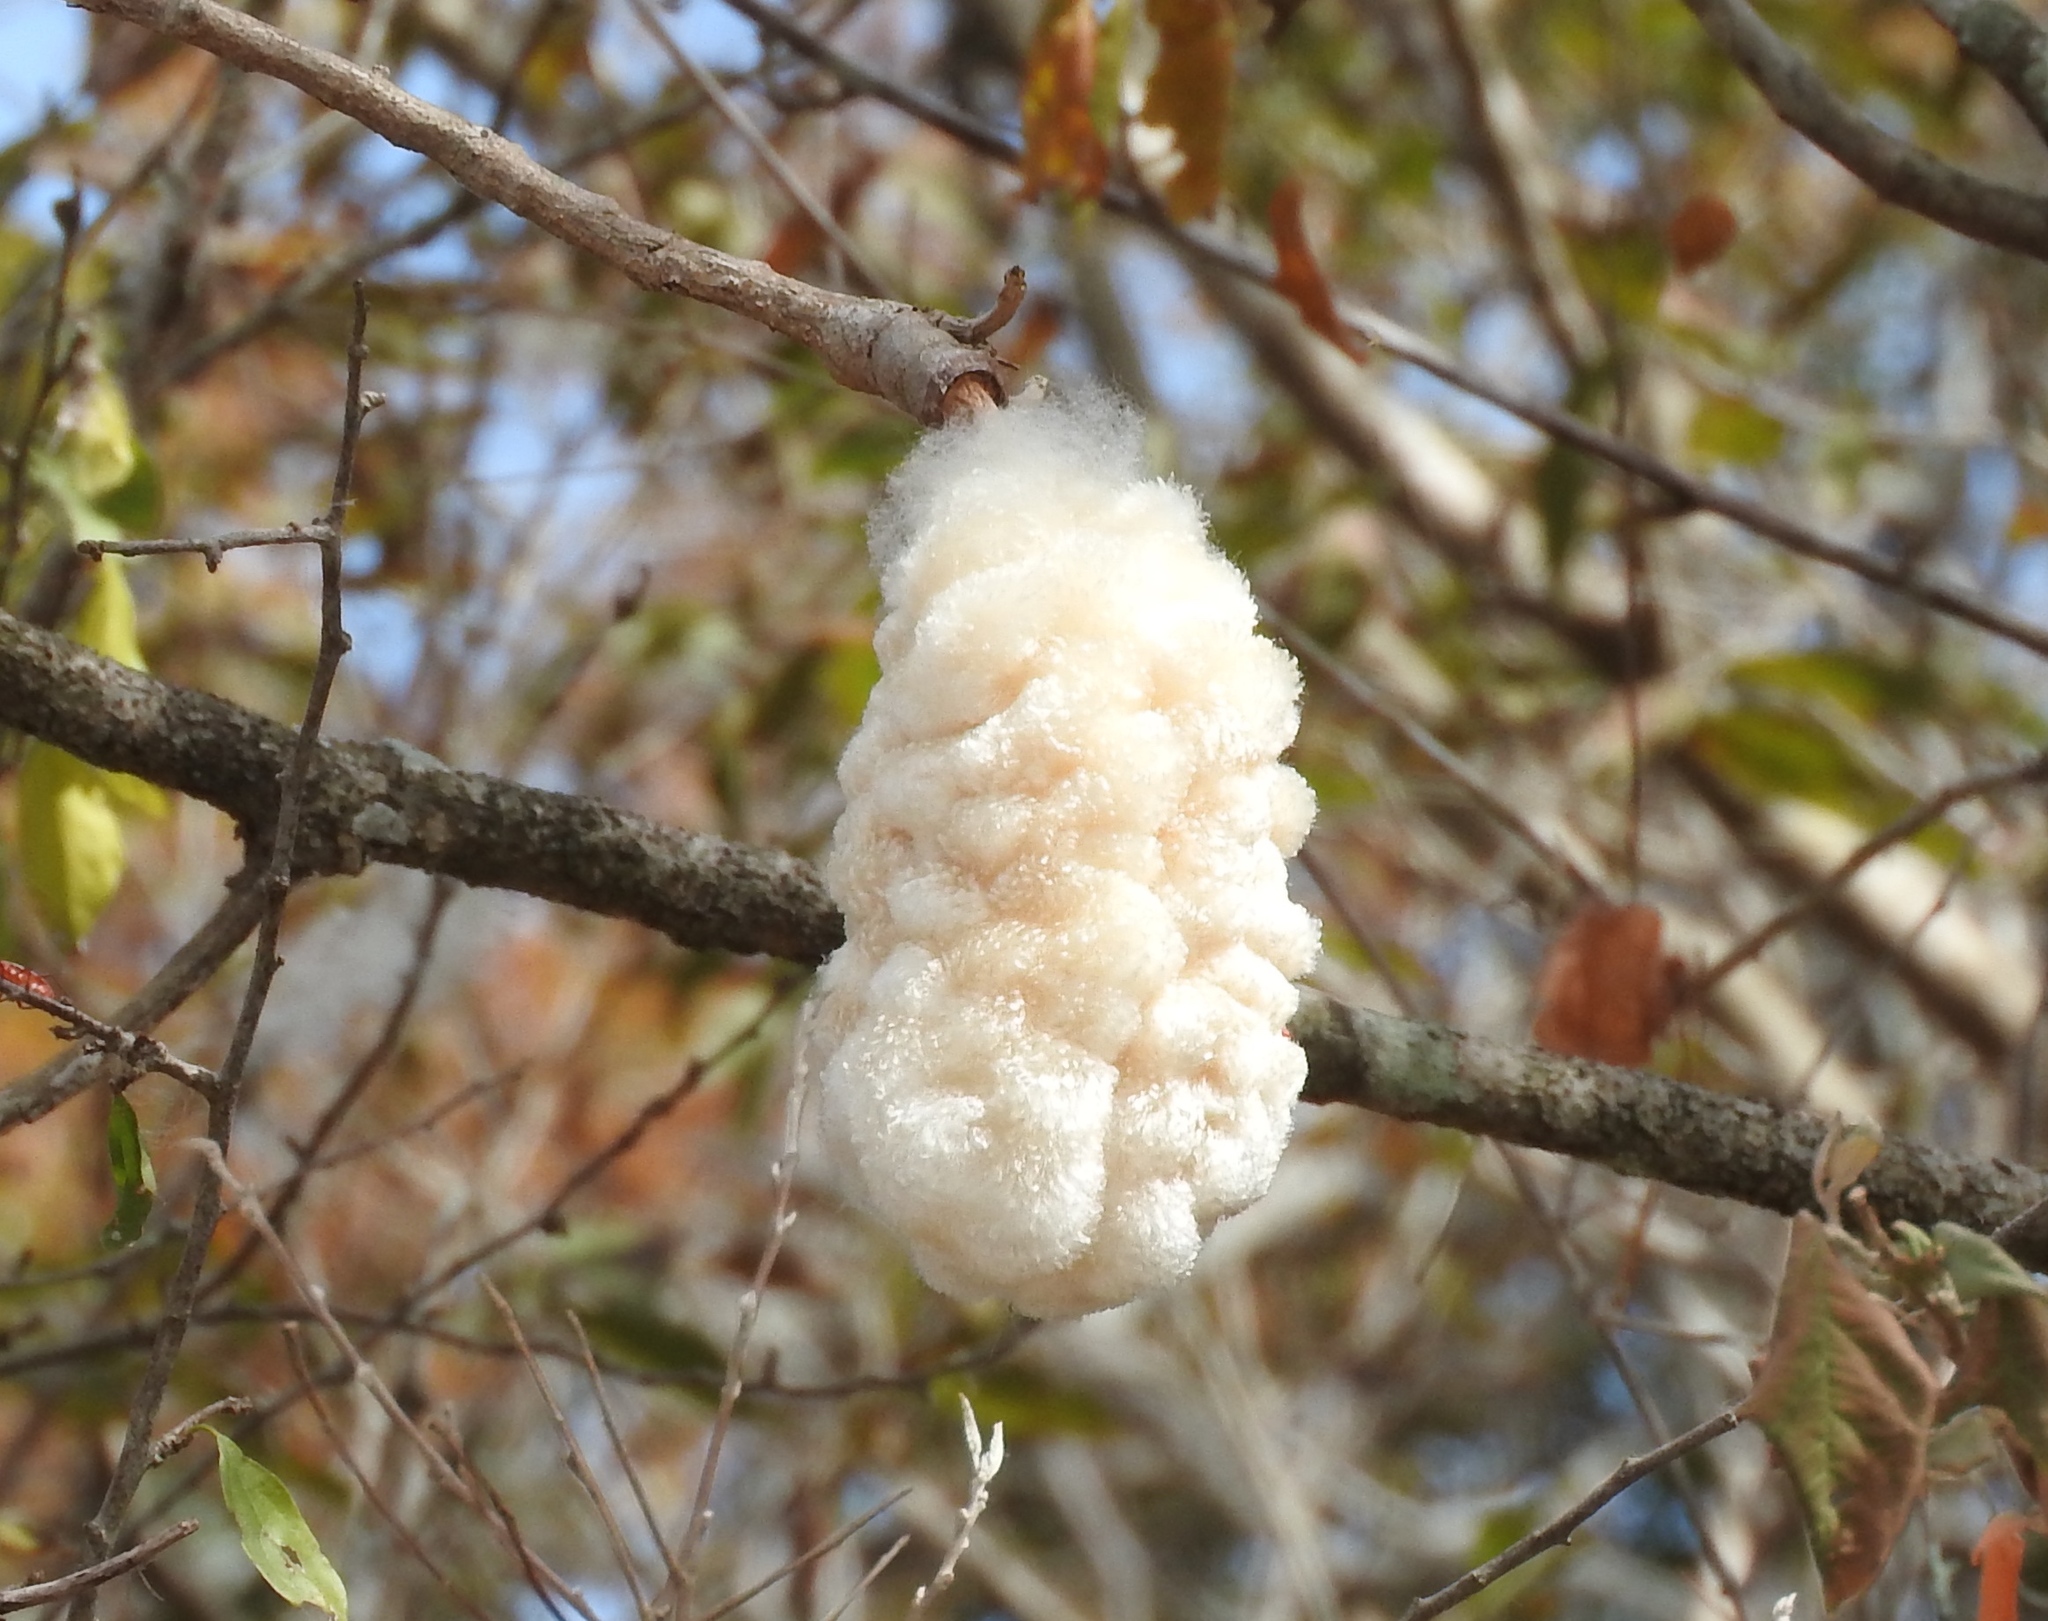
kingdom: Plantae
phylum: Tracheophyta
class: Magnoliopsida
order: Malvales
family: Malvaceae
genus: Ceiba
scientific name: Ceiba aesculifolia
